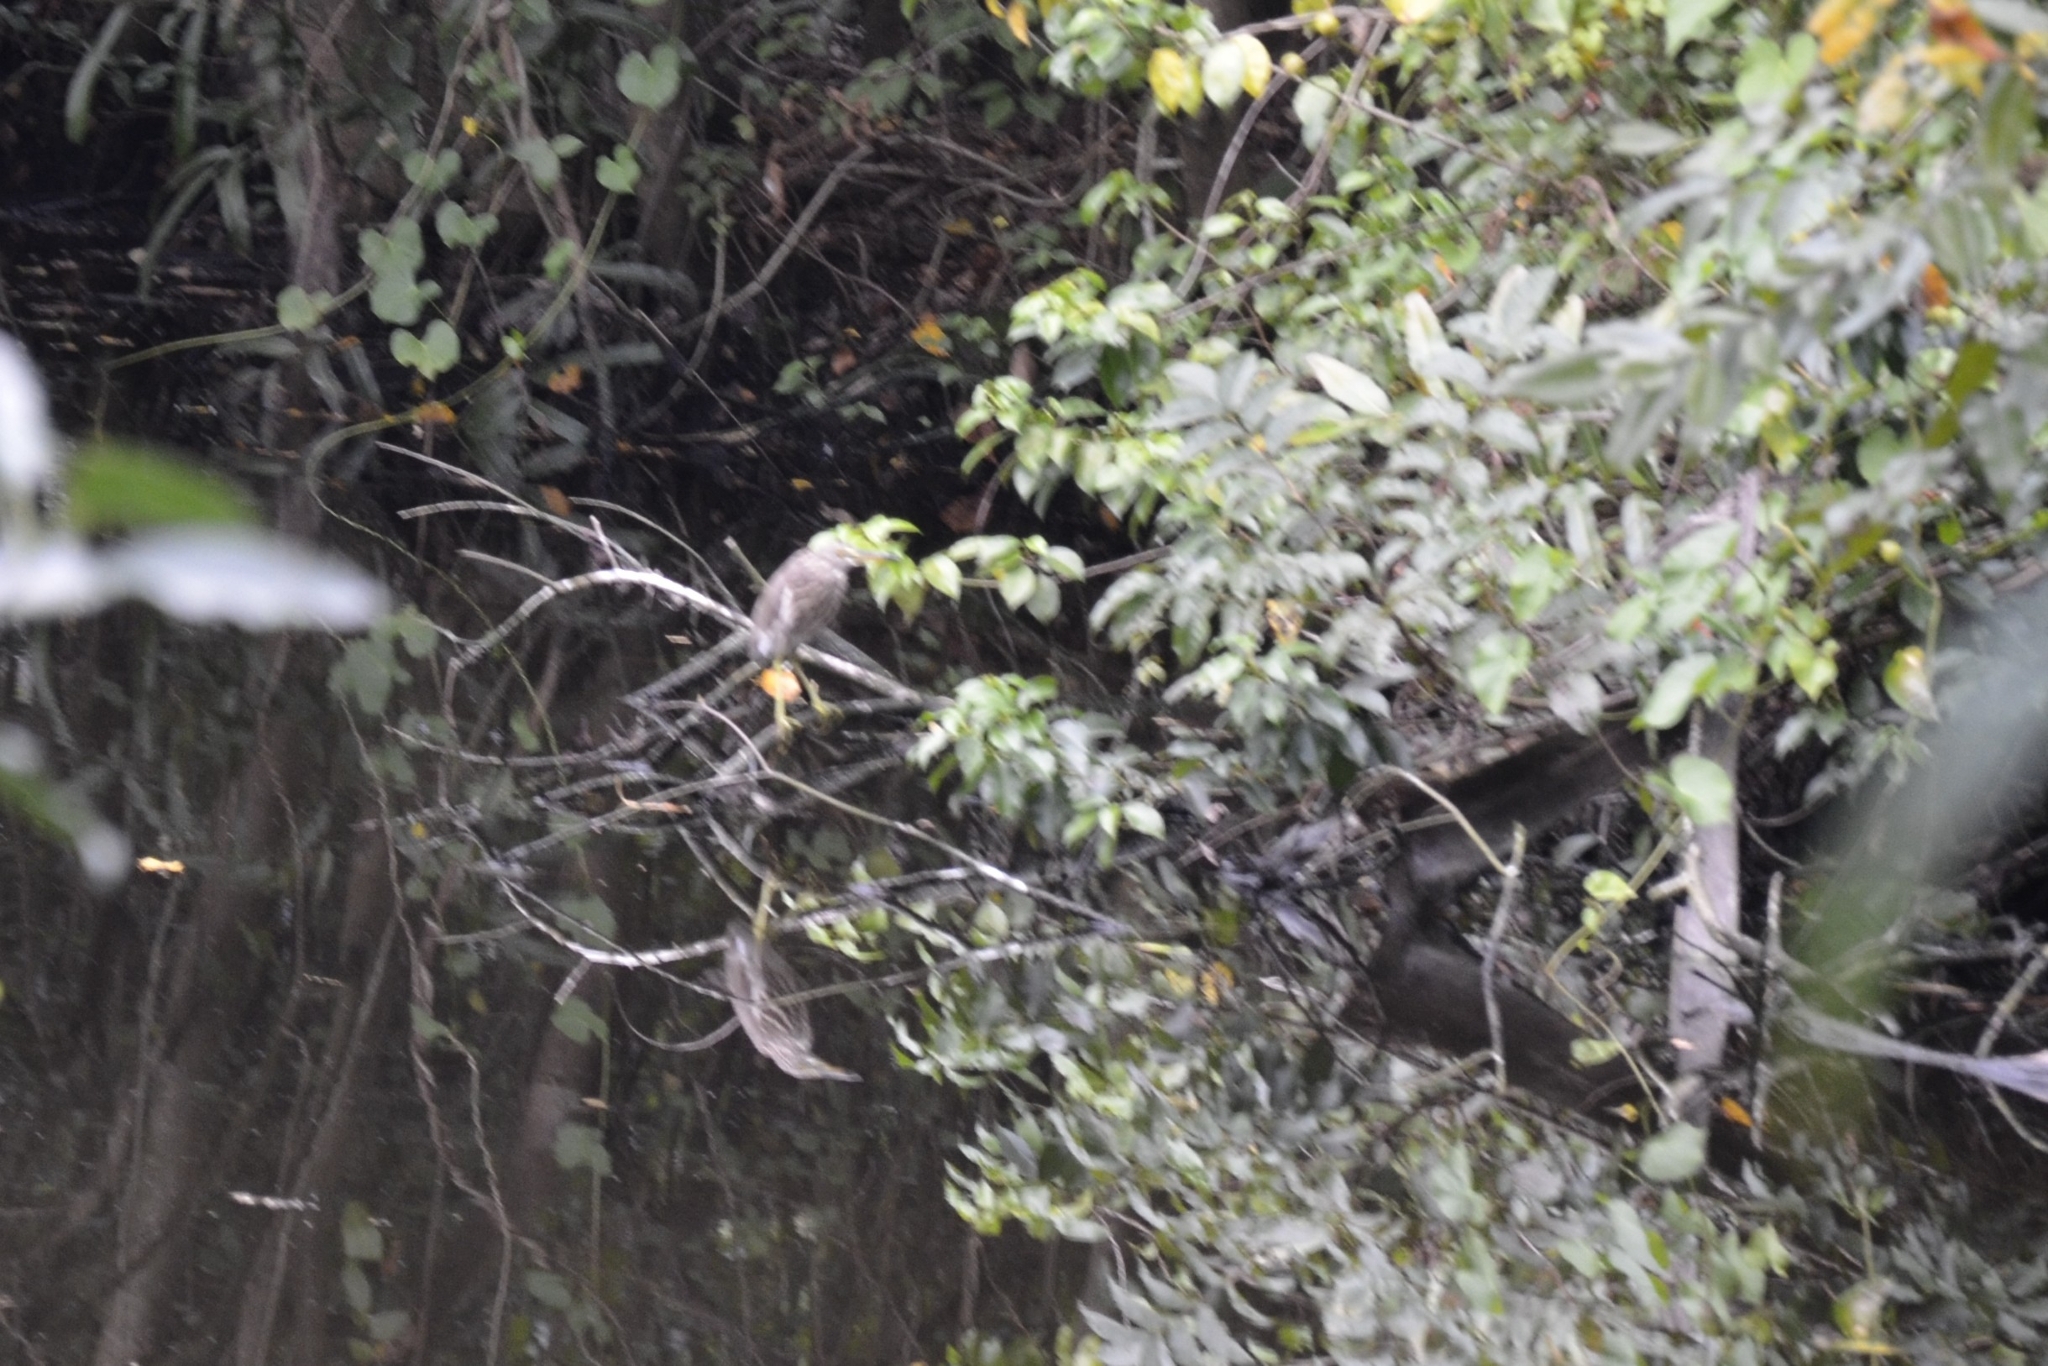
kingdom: Animalia
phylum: Chordata
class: Aves
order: Pelecaniformes
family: Ardeidae
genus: Ardeola
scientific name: Ardeola grayii
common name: Indian pond heron
